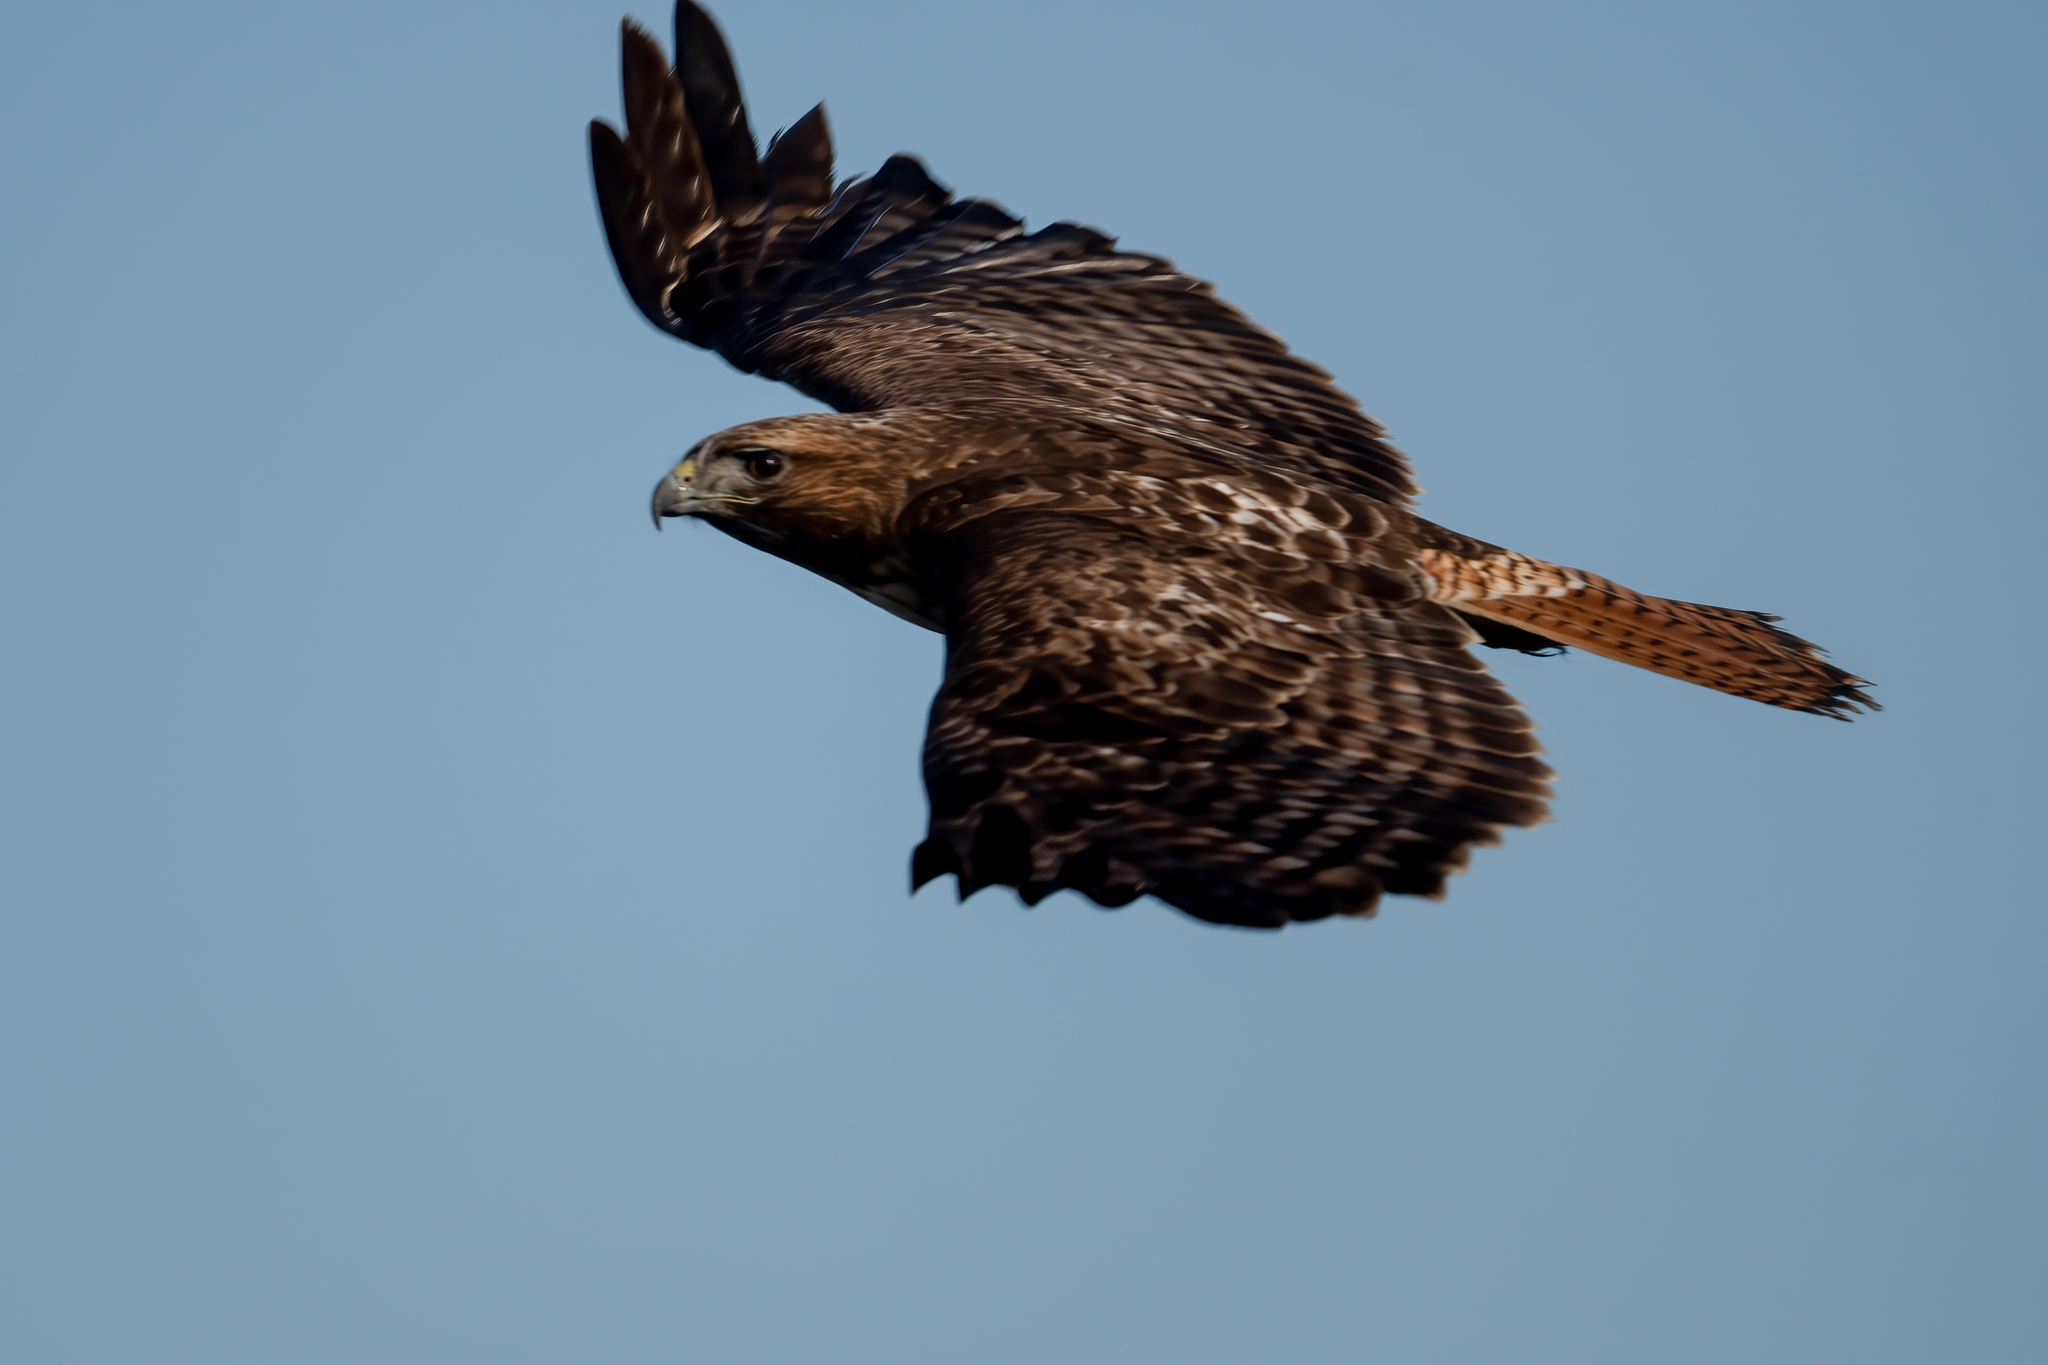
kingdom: Animalia
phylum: Chordata
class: Aves
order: Accipitriformes
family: Accipitridae
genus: Buteo
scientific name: Buteo jamaicensis
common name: Red-tailed hawk
